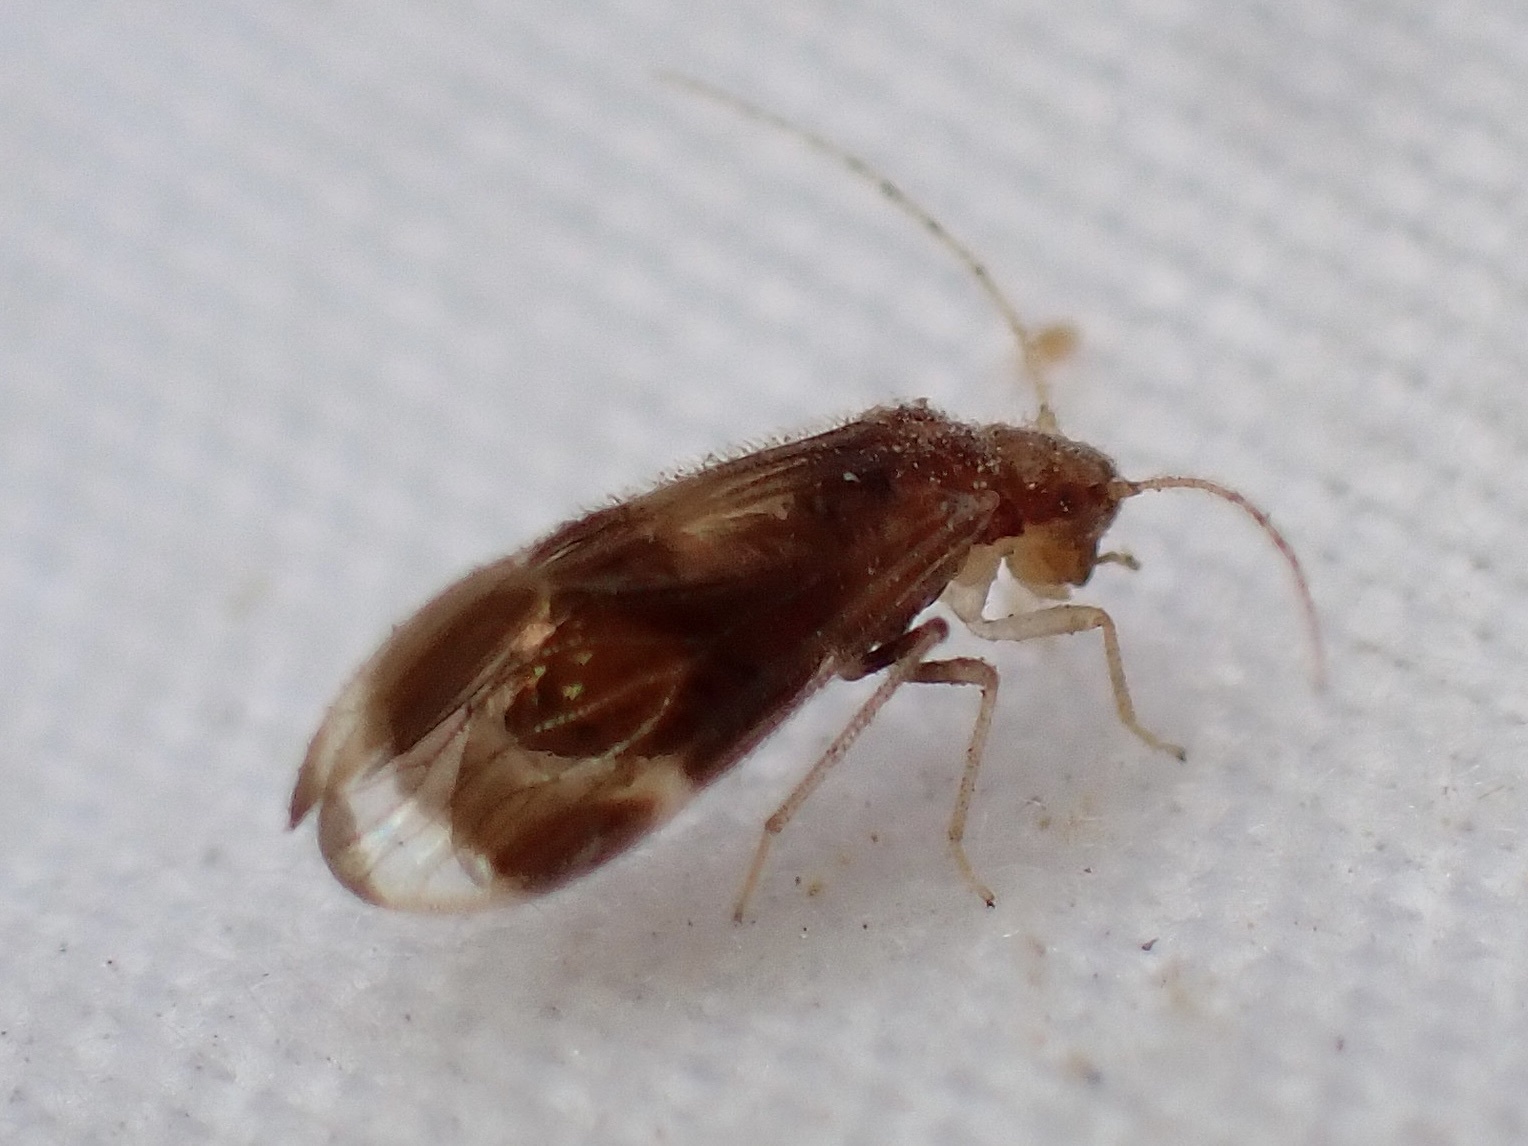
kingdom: Animalia
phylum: Arthropoda
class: Insecta
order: Psocodea
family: Amphipsocidae
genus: Polypsocus
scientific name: Polypsocus corruptus
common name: Corrupt barklouse
